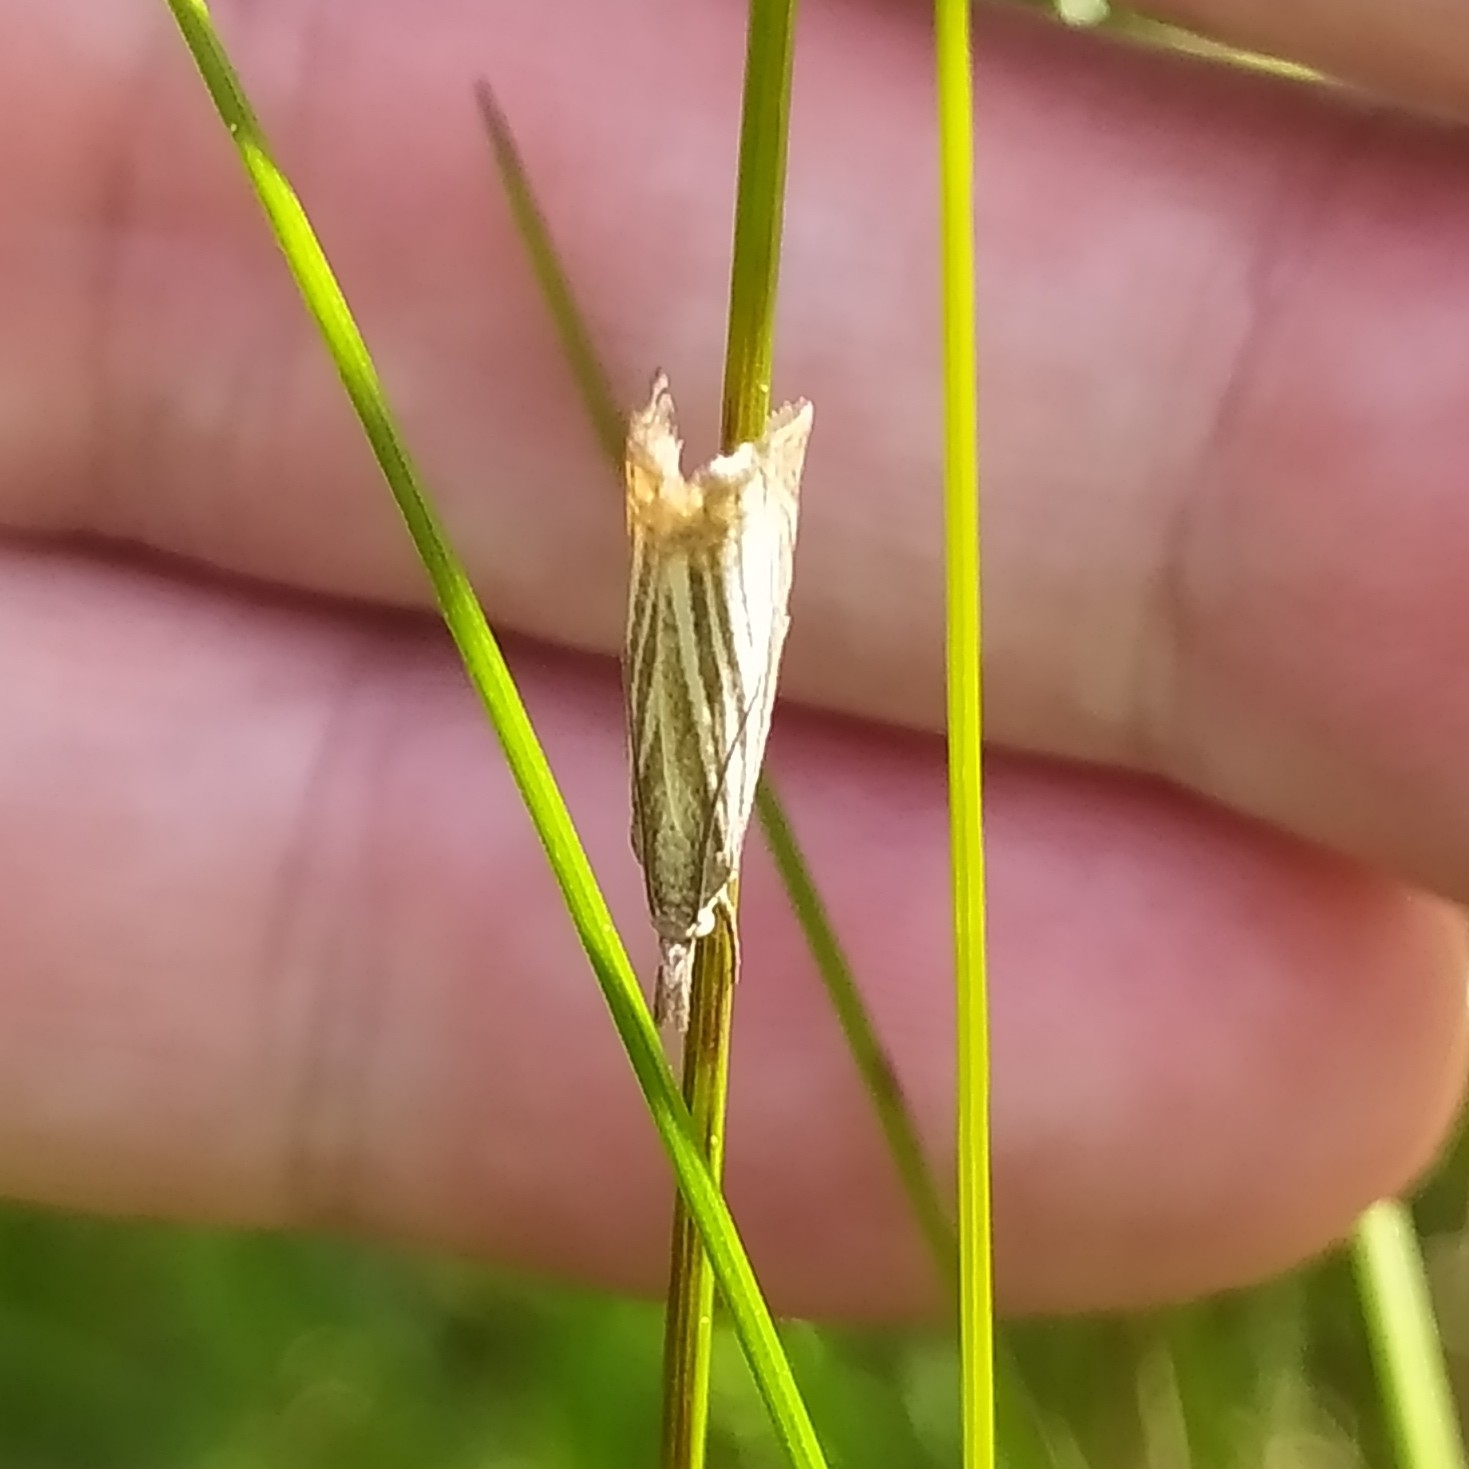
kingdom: Animalia
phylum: Arthropoda
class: Insecta
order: Lepidoptera
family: Crambidae
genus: Chrysoteuchia
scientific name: Chrysoteuchia culmella
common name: Garden grass-veneer
